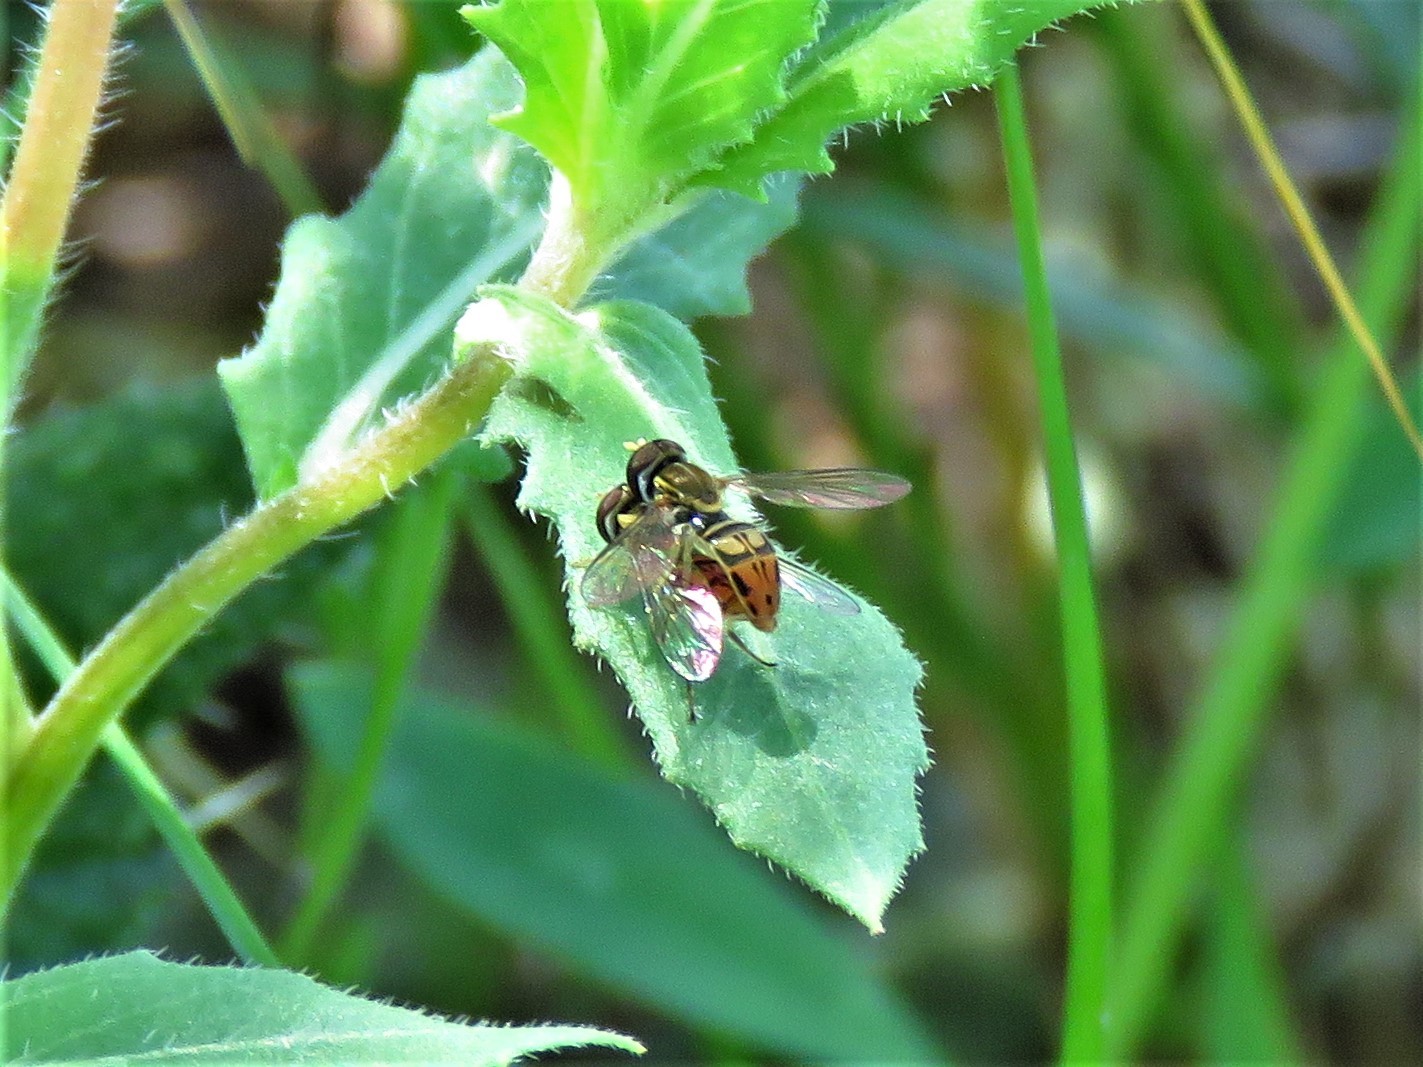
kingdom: Animalia
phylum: Arthropoda
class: Insecta
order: Diptera
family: Syrphidae
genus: Toxomerus
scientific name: Toxomerus marginatus
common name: Syrphid fly
